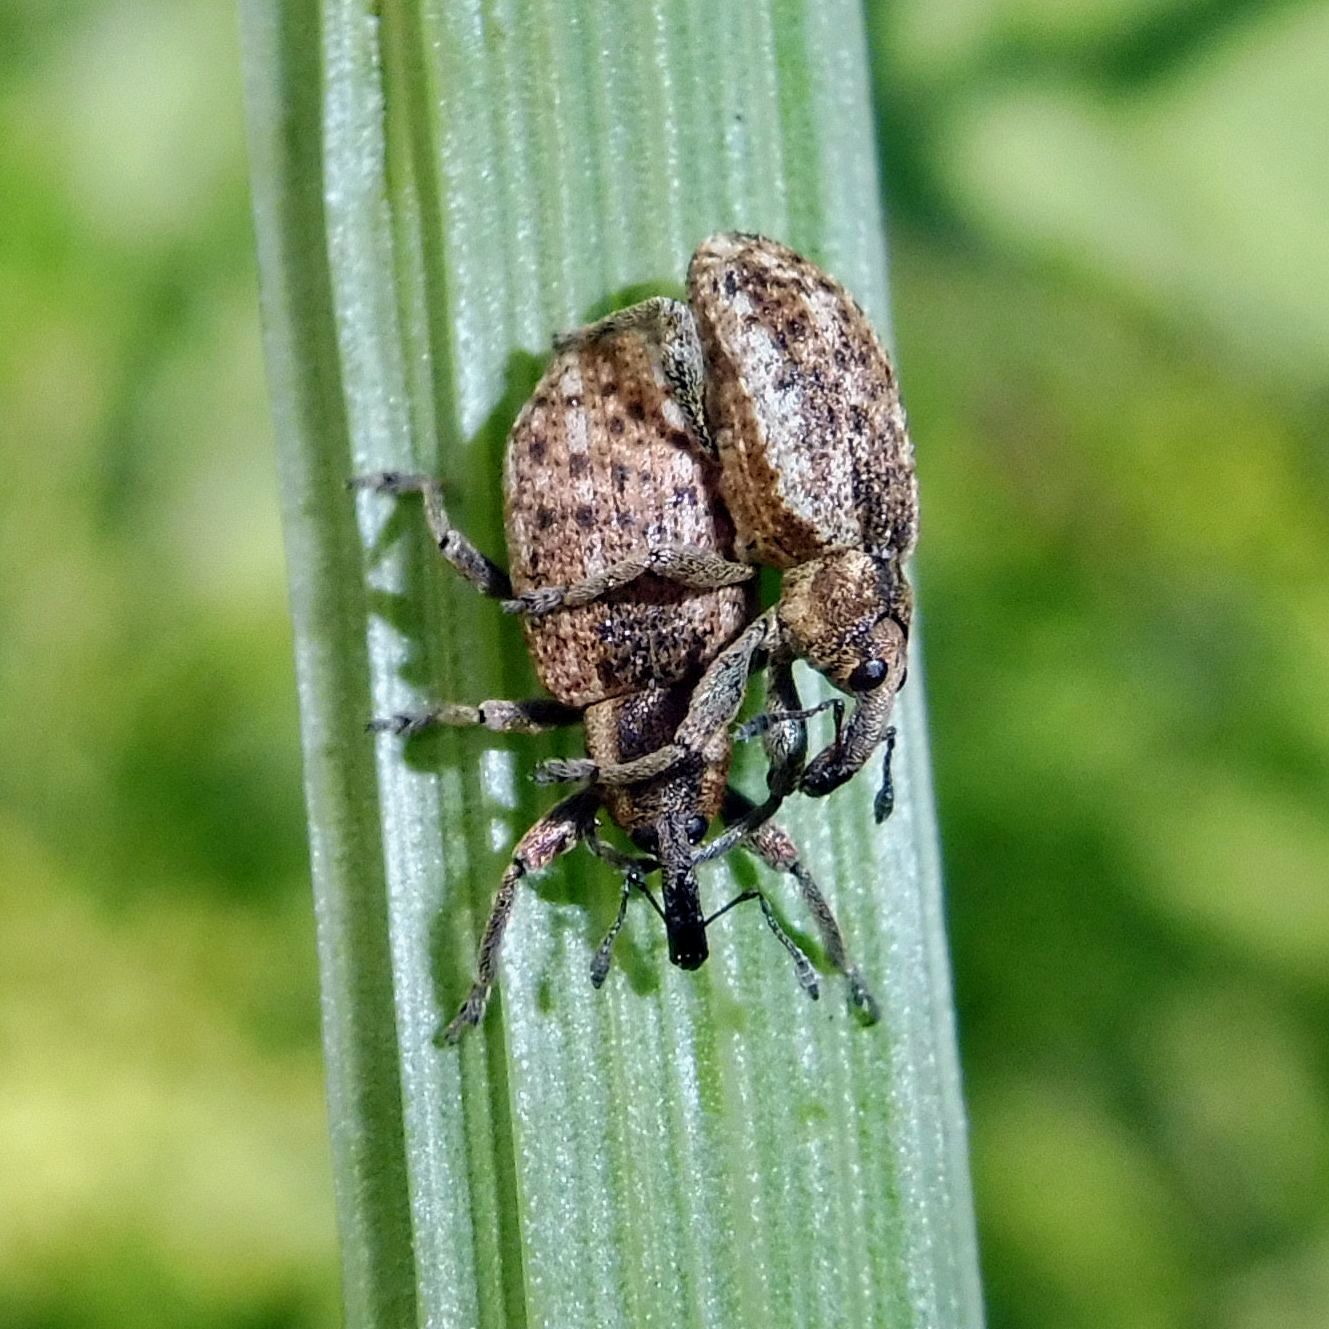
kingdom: Animalia
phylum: Arthropoda
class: Insecta
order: Coleoptera
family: Curculionidae
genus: Hypera
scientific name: Hypera conmaculata
